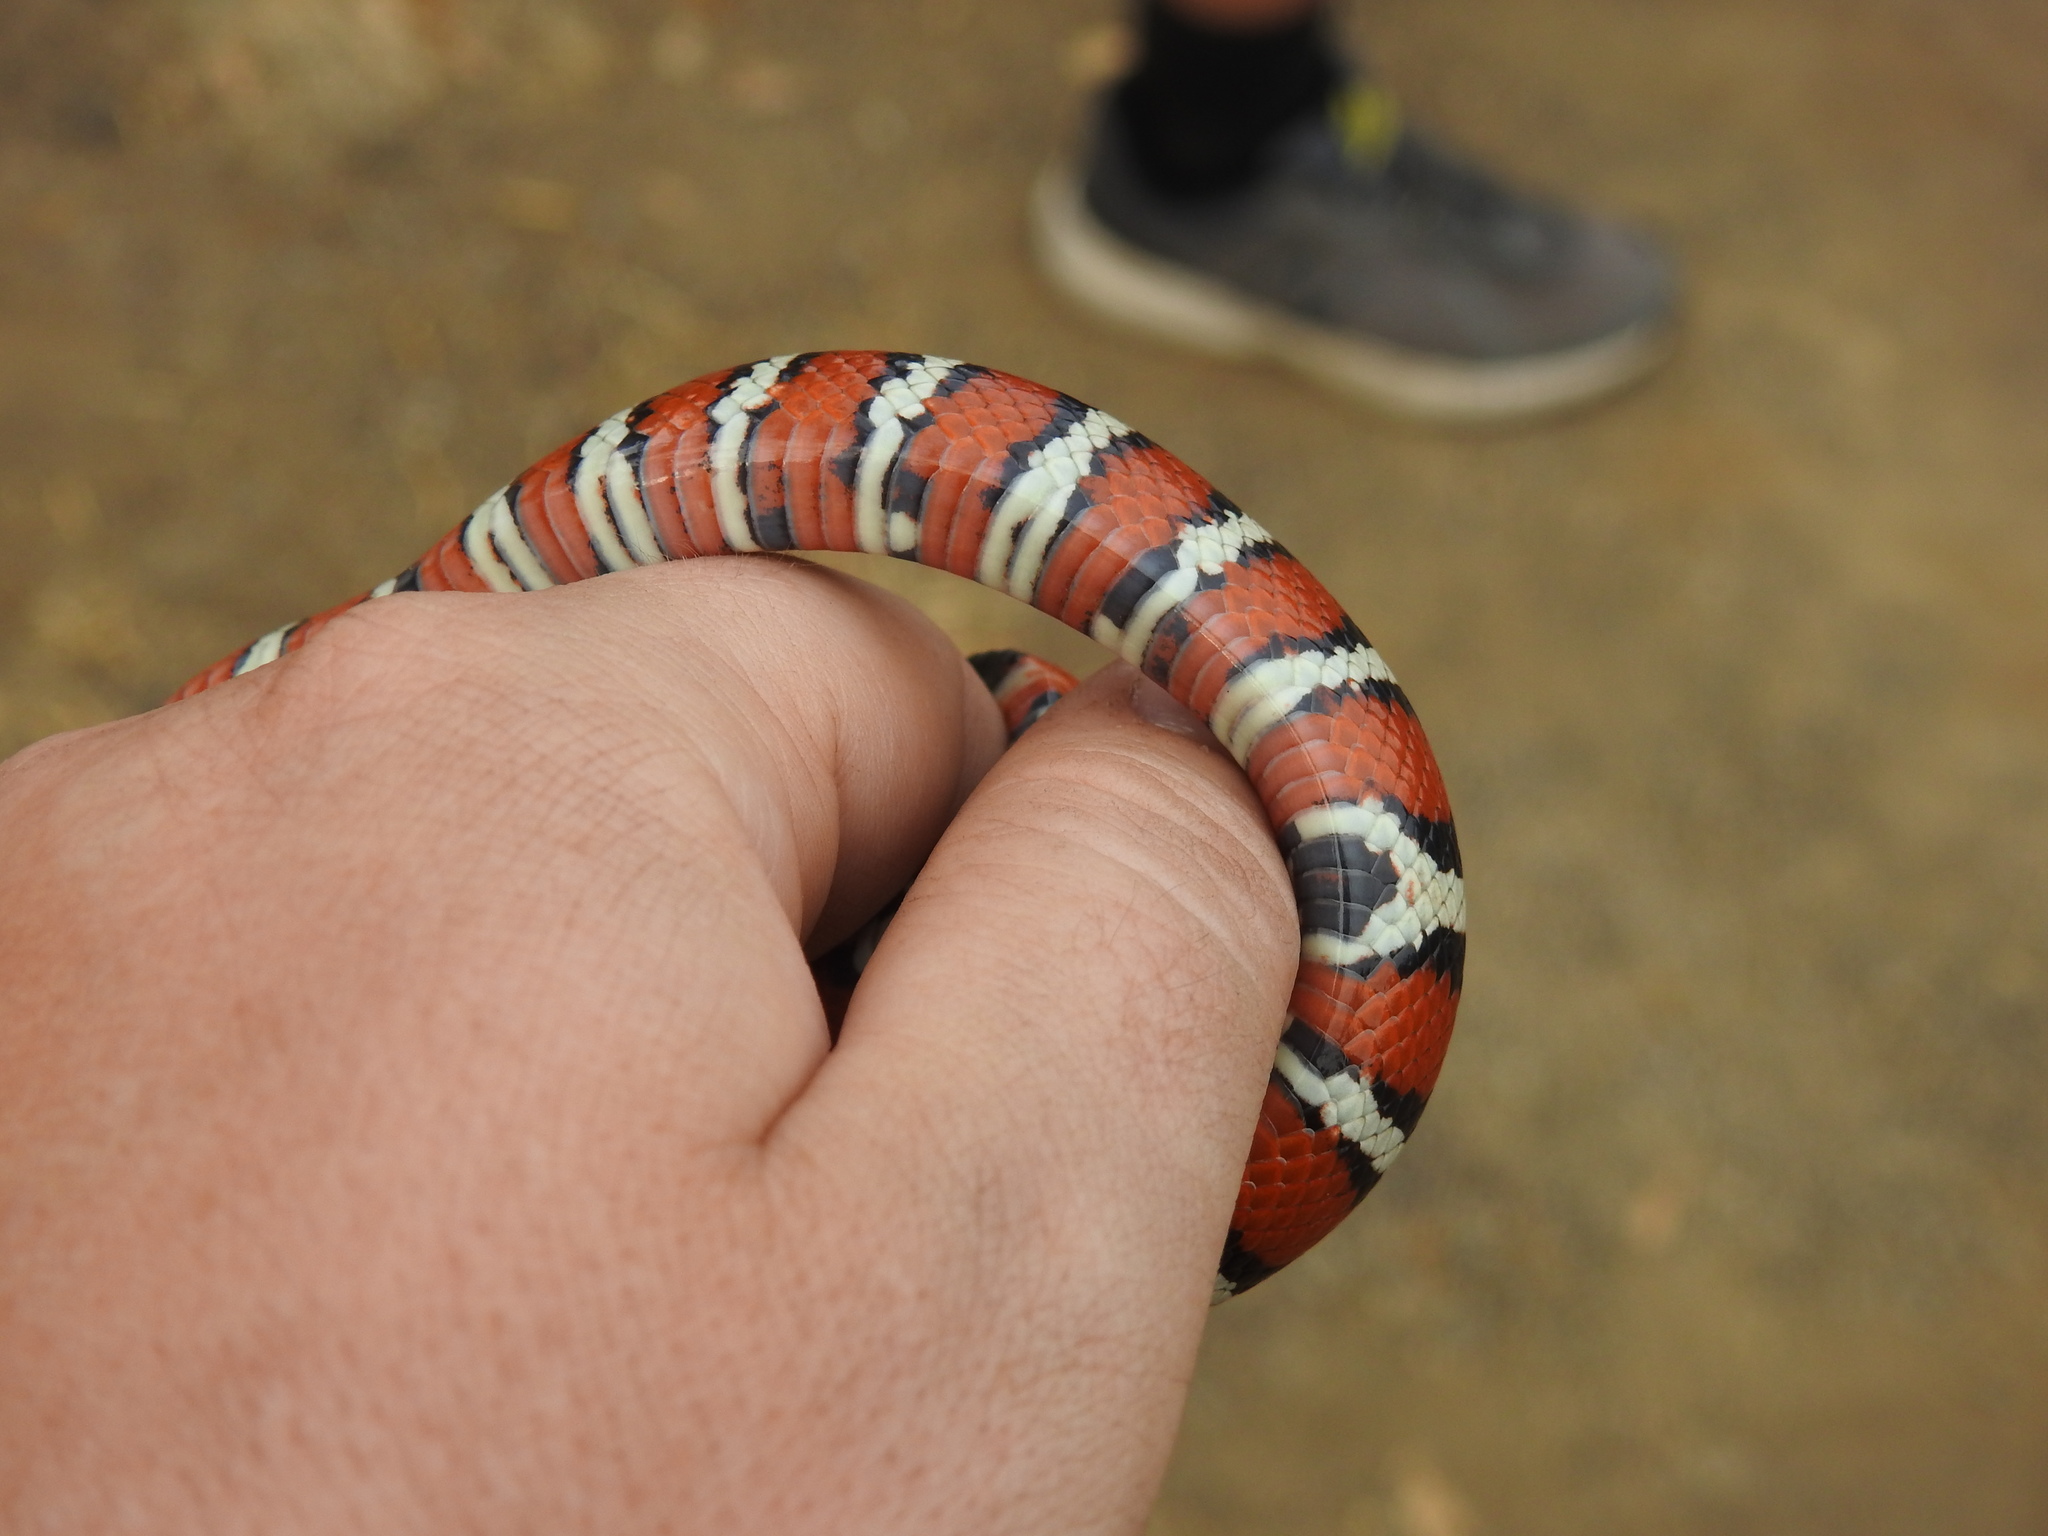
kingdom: Animalia
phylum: Chordata
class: Squamata
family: Colubridae
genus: Lampropeltis
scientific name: Lampropeltis pyromelana
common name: Sonoran mountain kingsnake
